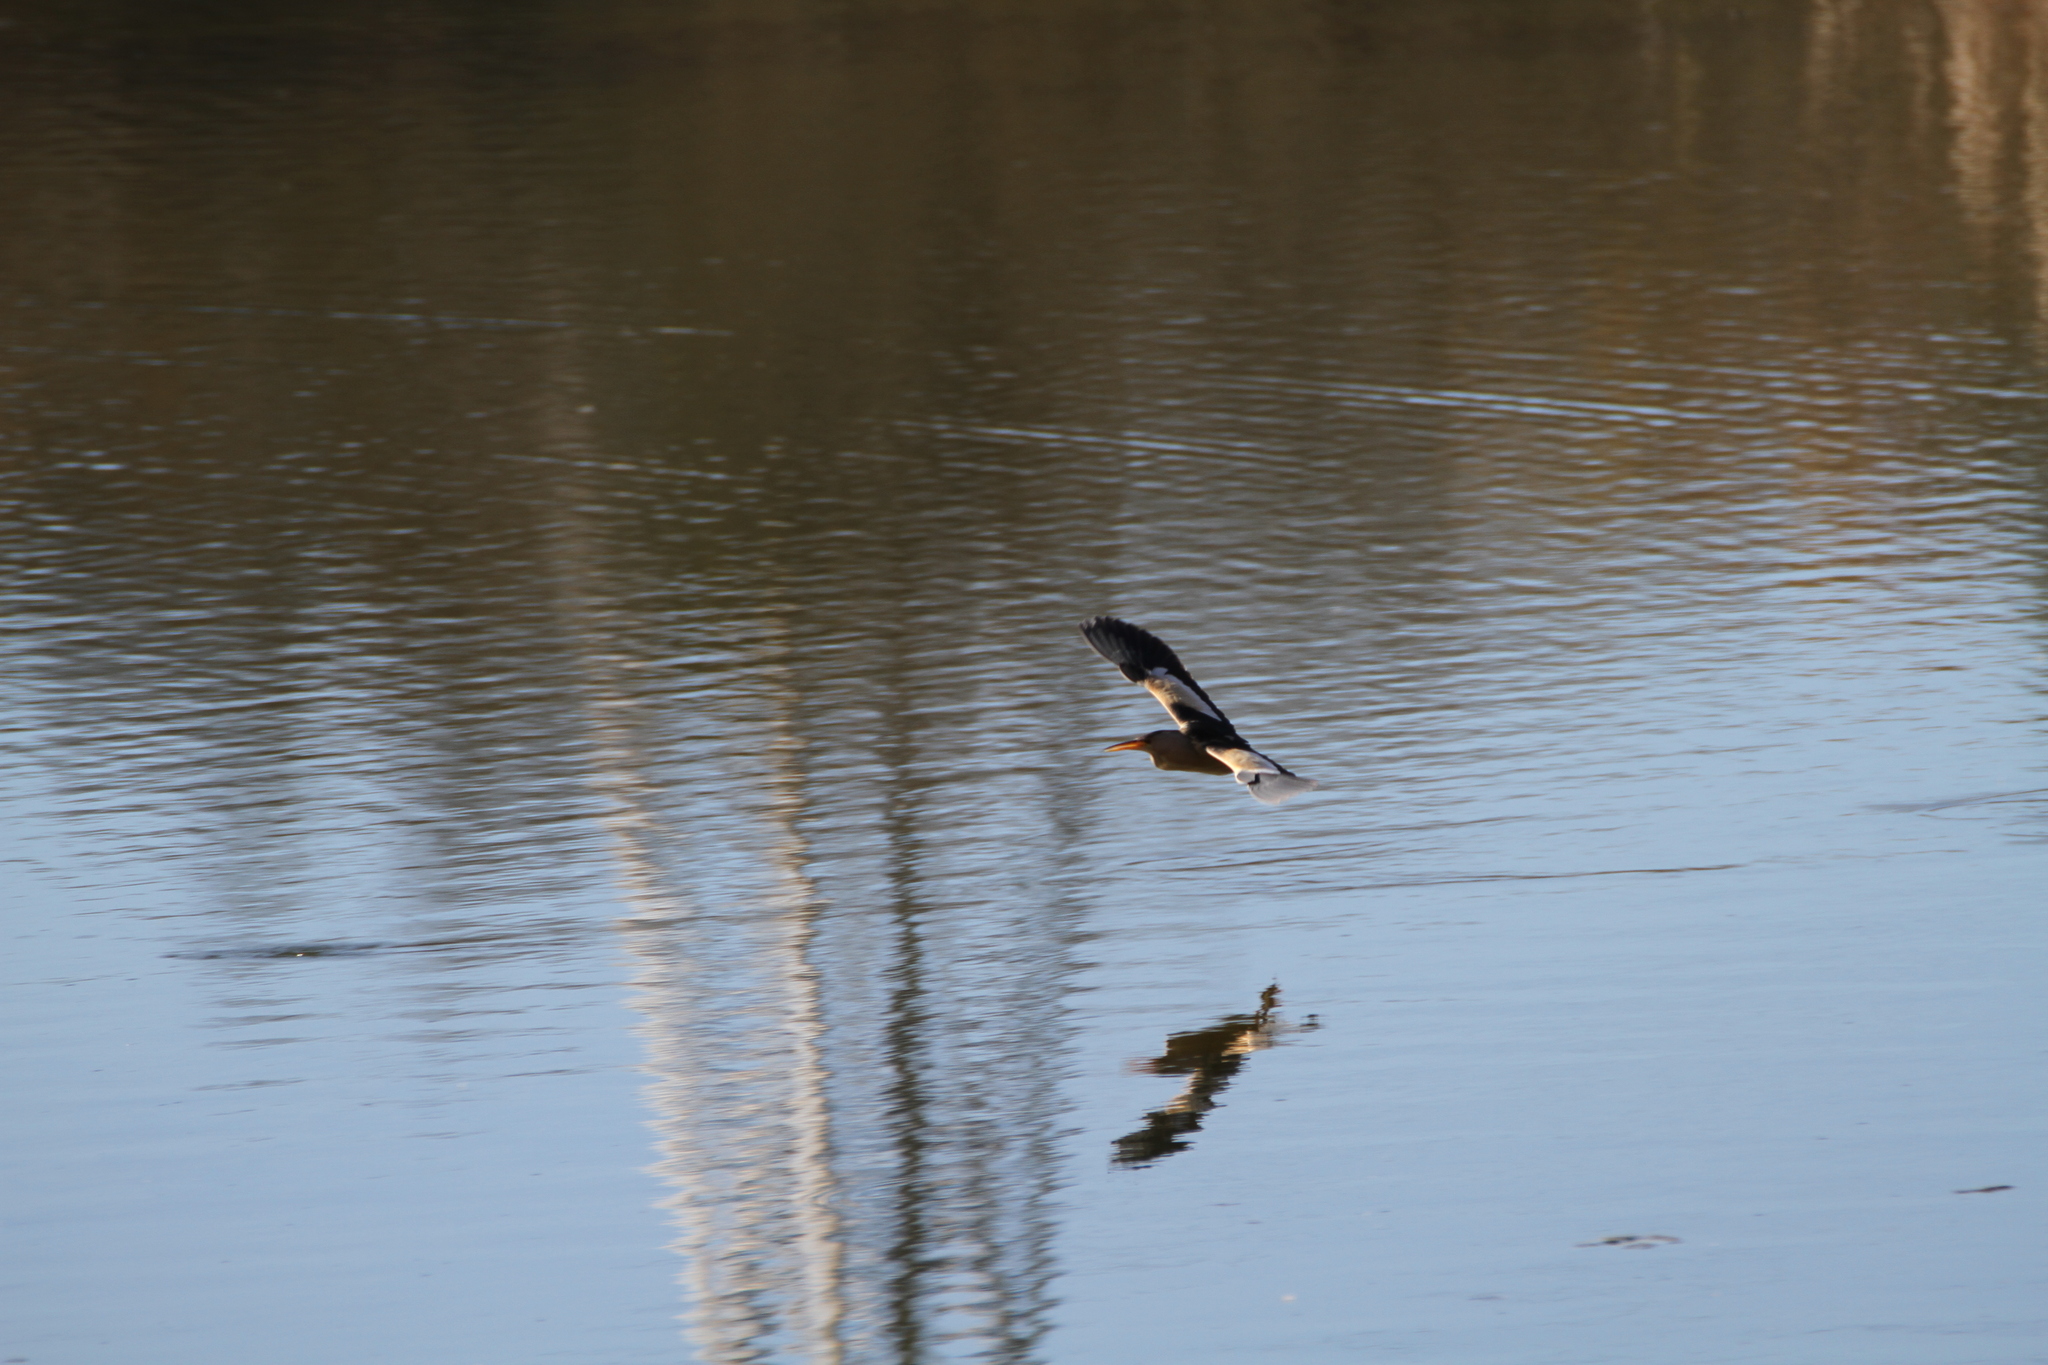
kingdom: Animalia
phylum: Chordata
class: Aves
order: Pelecaniformes
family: Ardeidae
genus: Ixobrychus
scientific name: Ixobrychus minutus
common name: Little bittern
